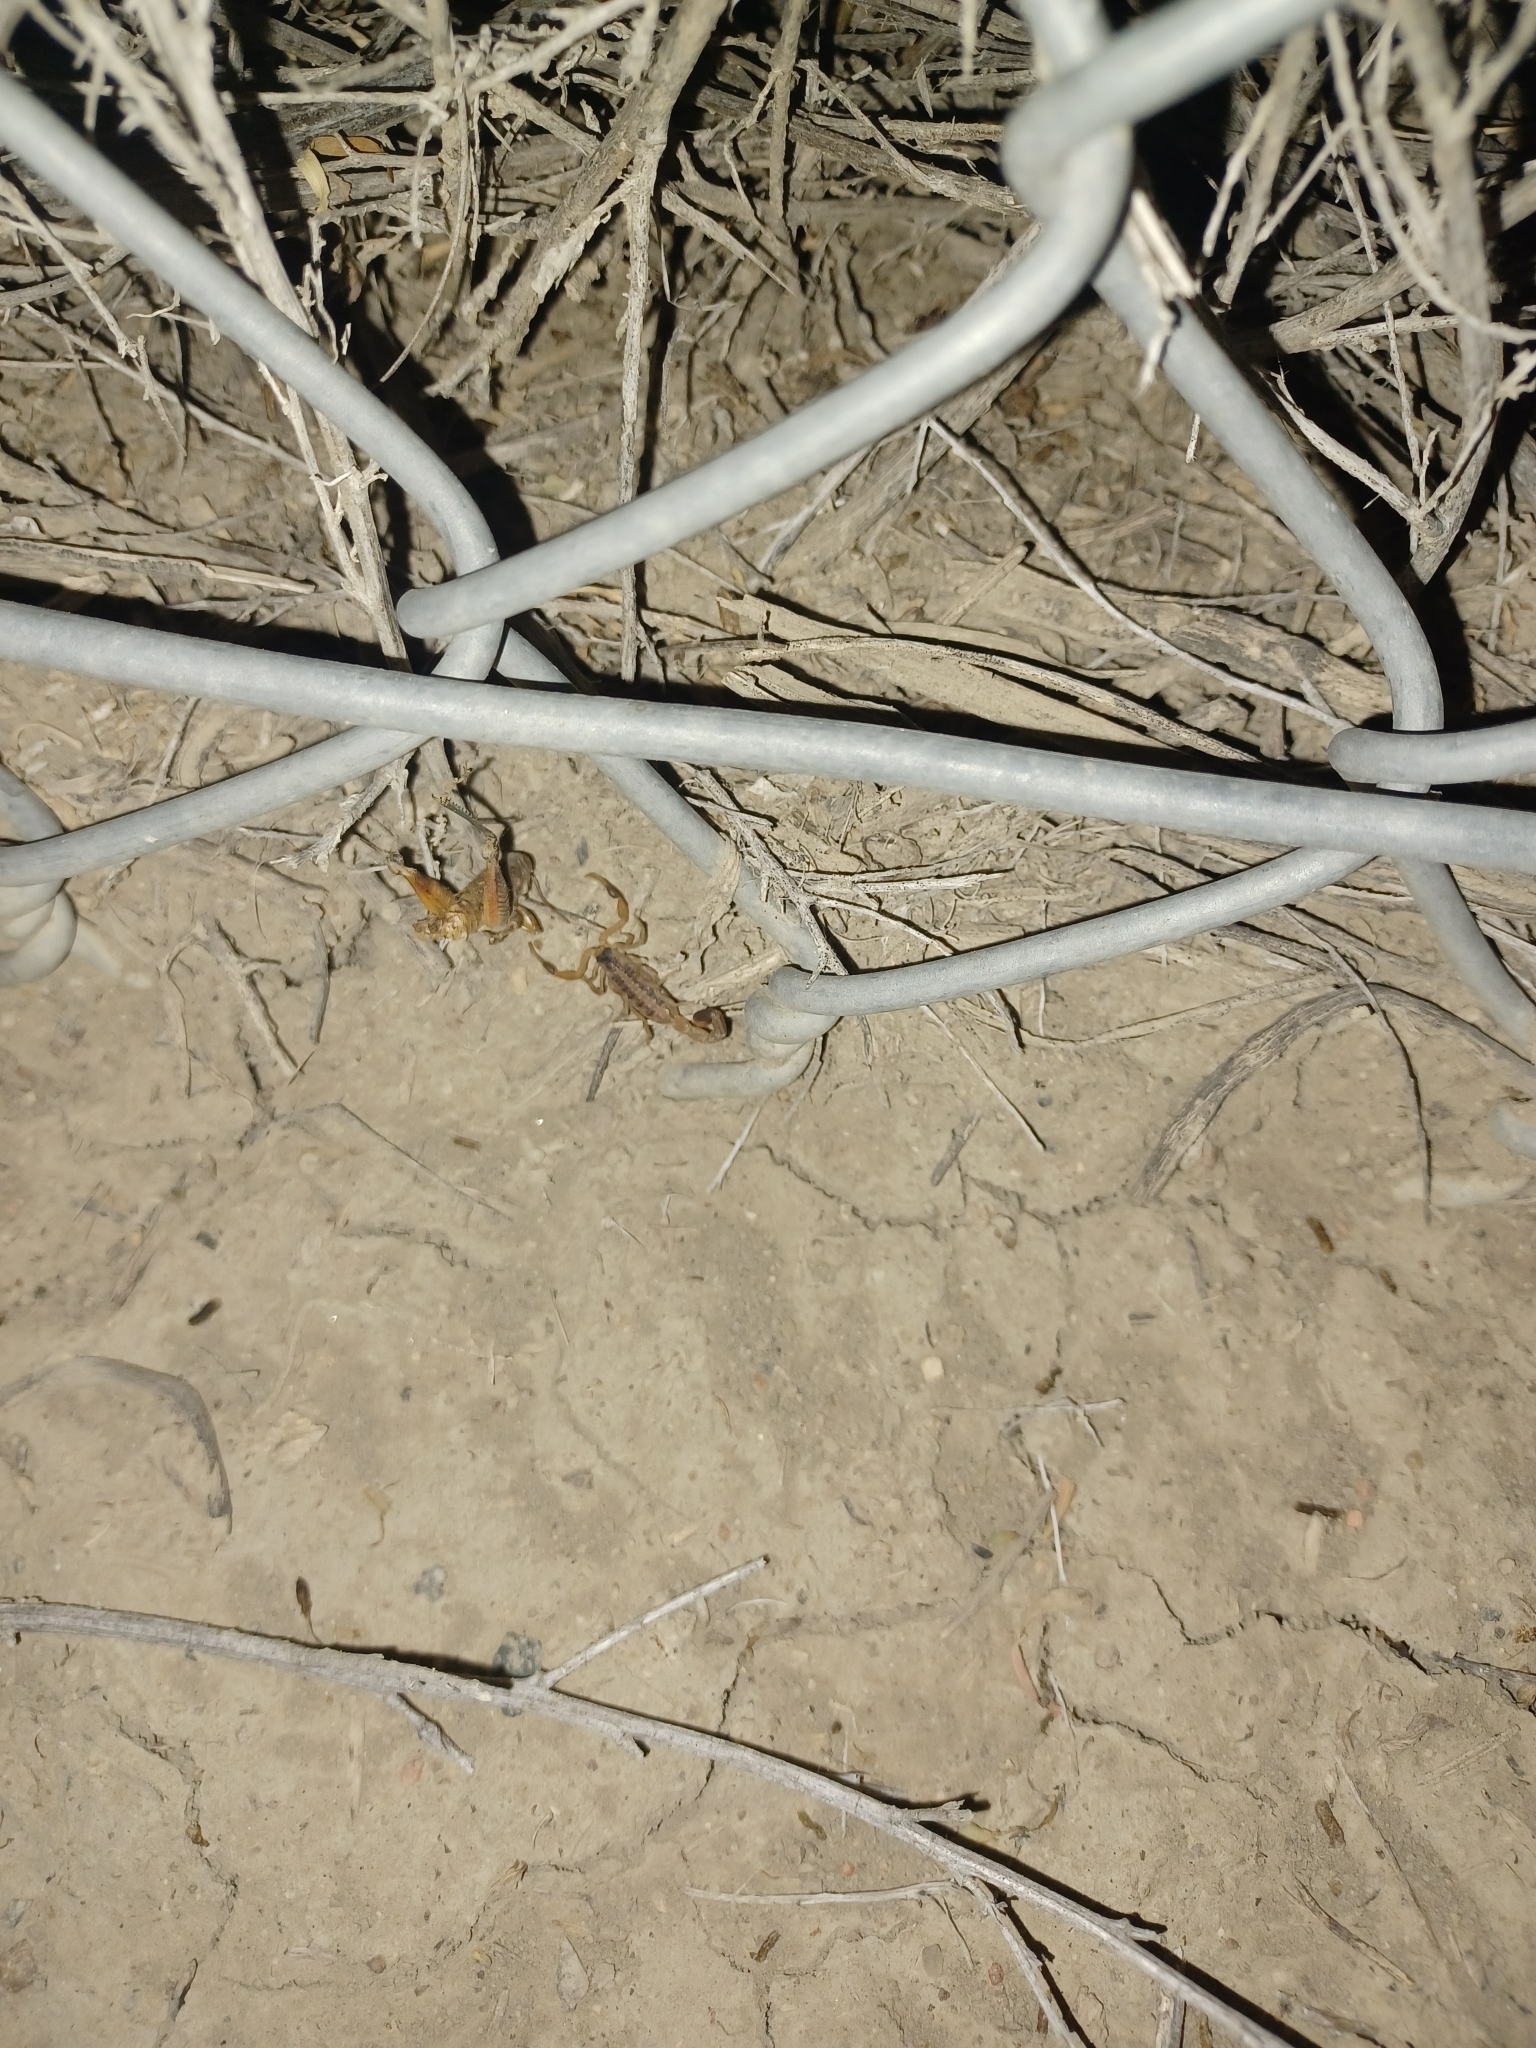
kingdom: Animalia
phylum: Arthropoda
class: Arachnida
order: Scorpiones
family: Buthidae
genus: Centruroides
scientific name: Centruroides vittatus
